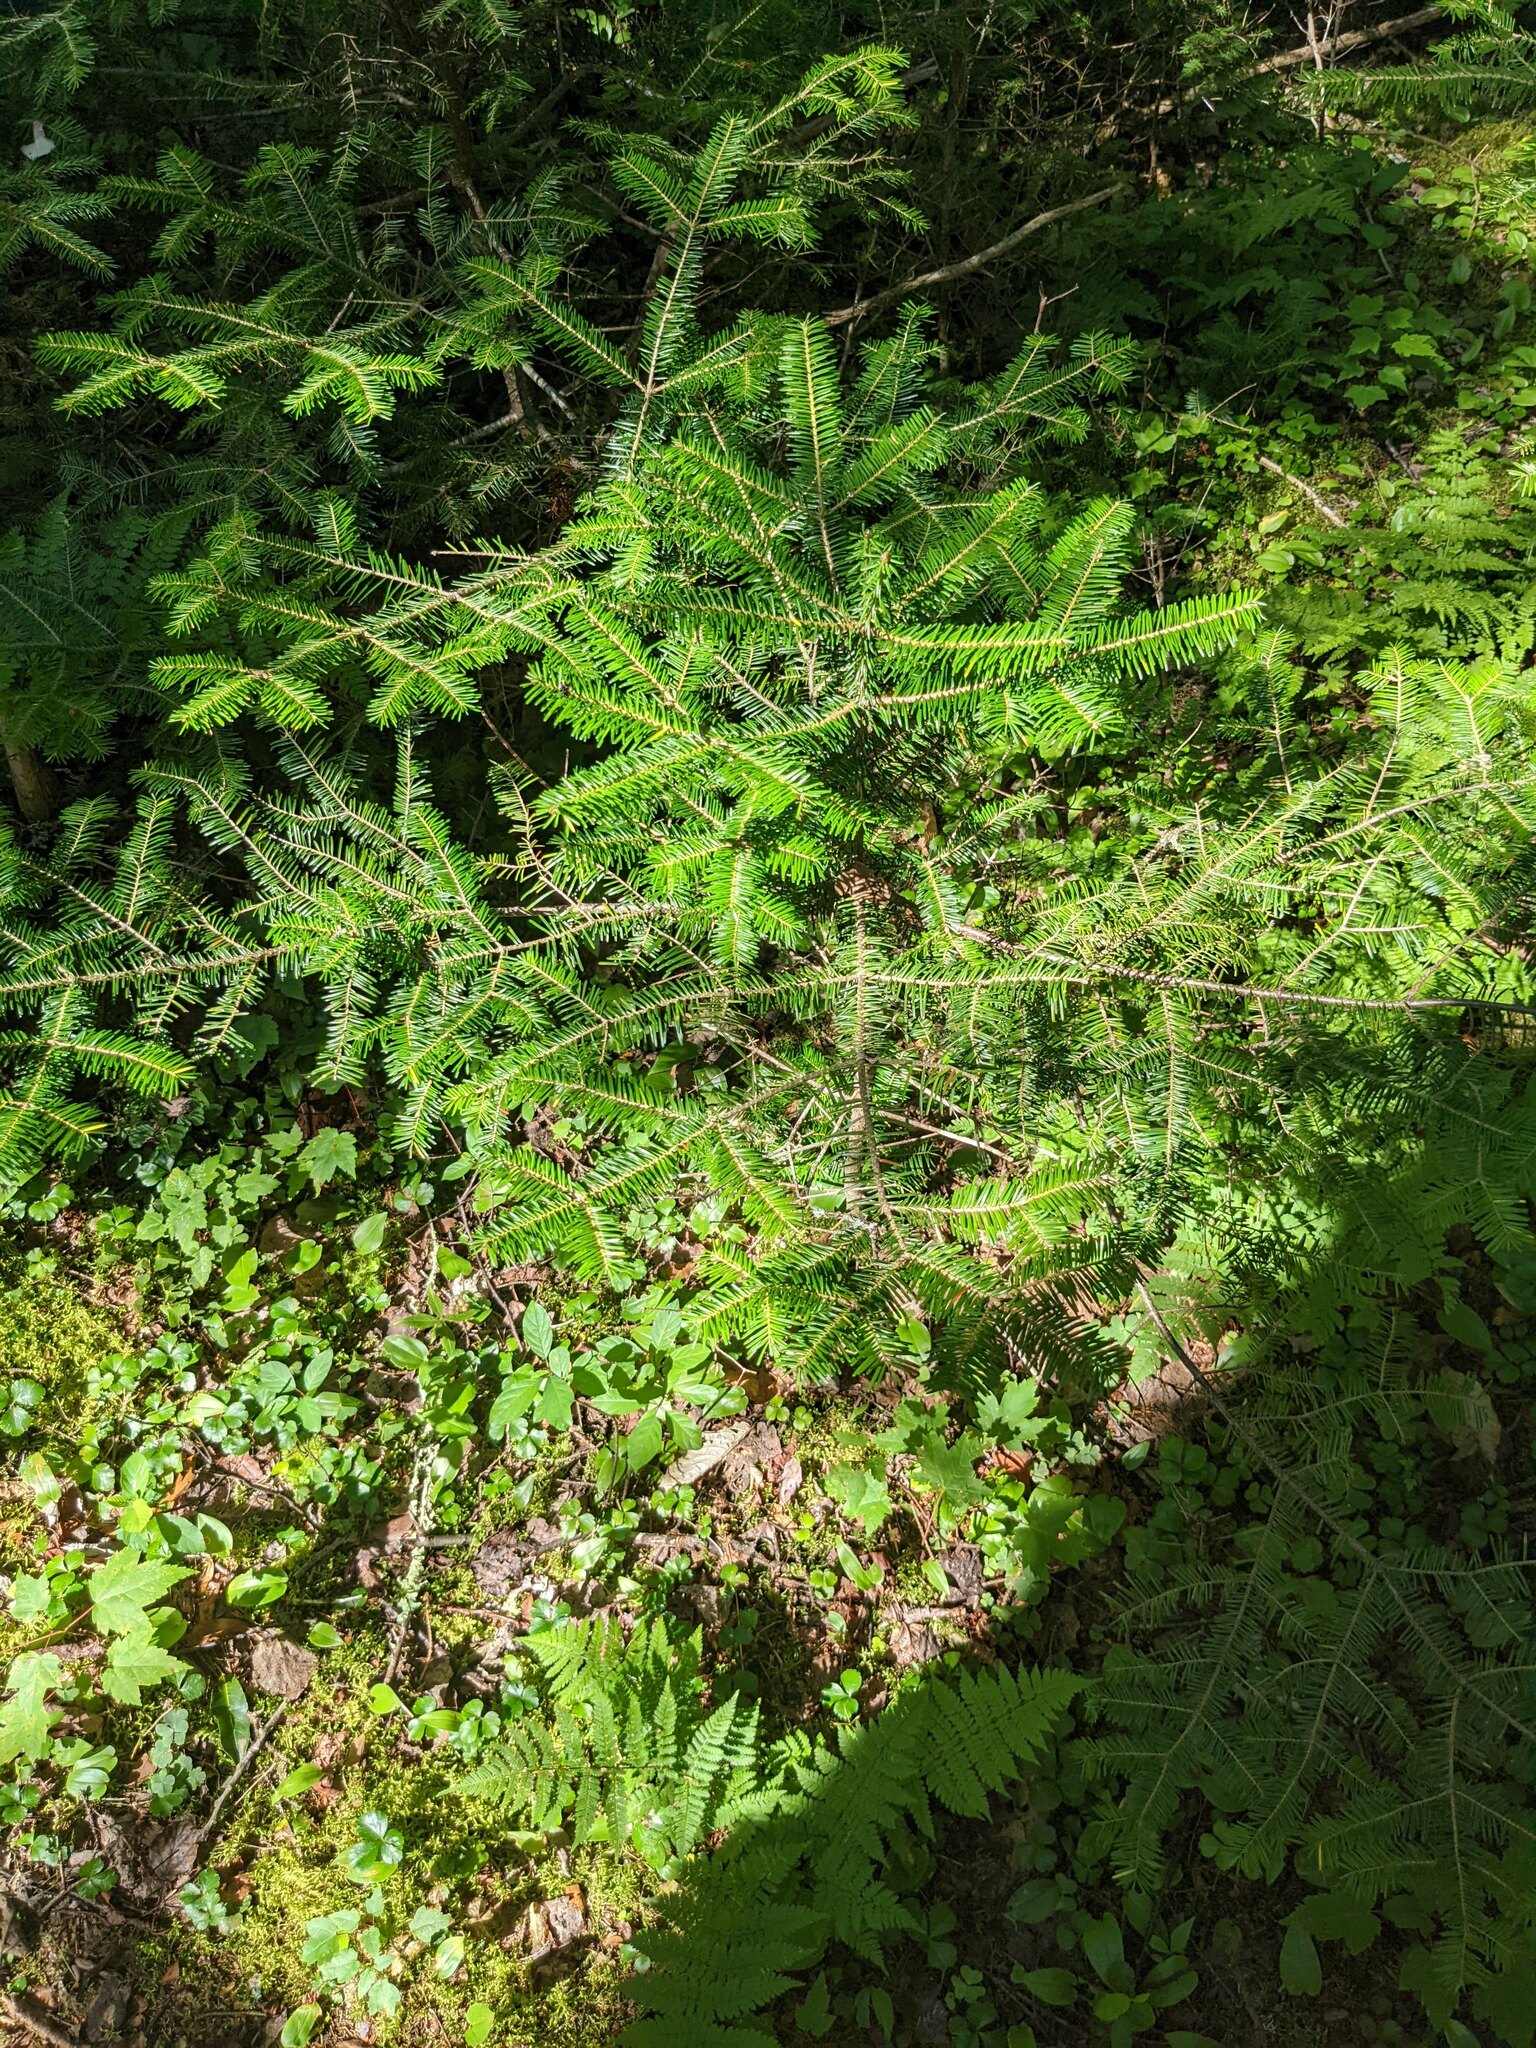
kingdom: Plantae
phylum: Tracheophyta
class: Pinopsida
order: Pinales
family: Pinaceae
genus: Abies
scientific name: Abies balsamea
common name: Balsam fir
